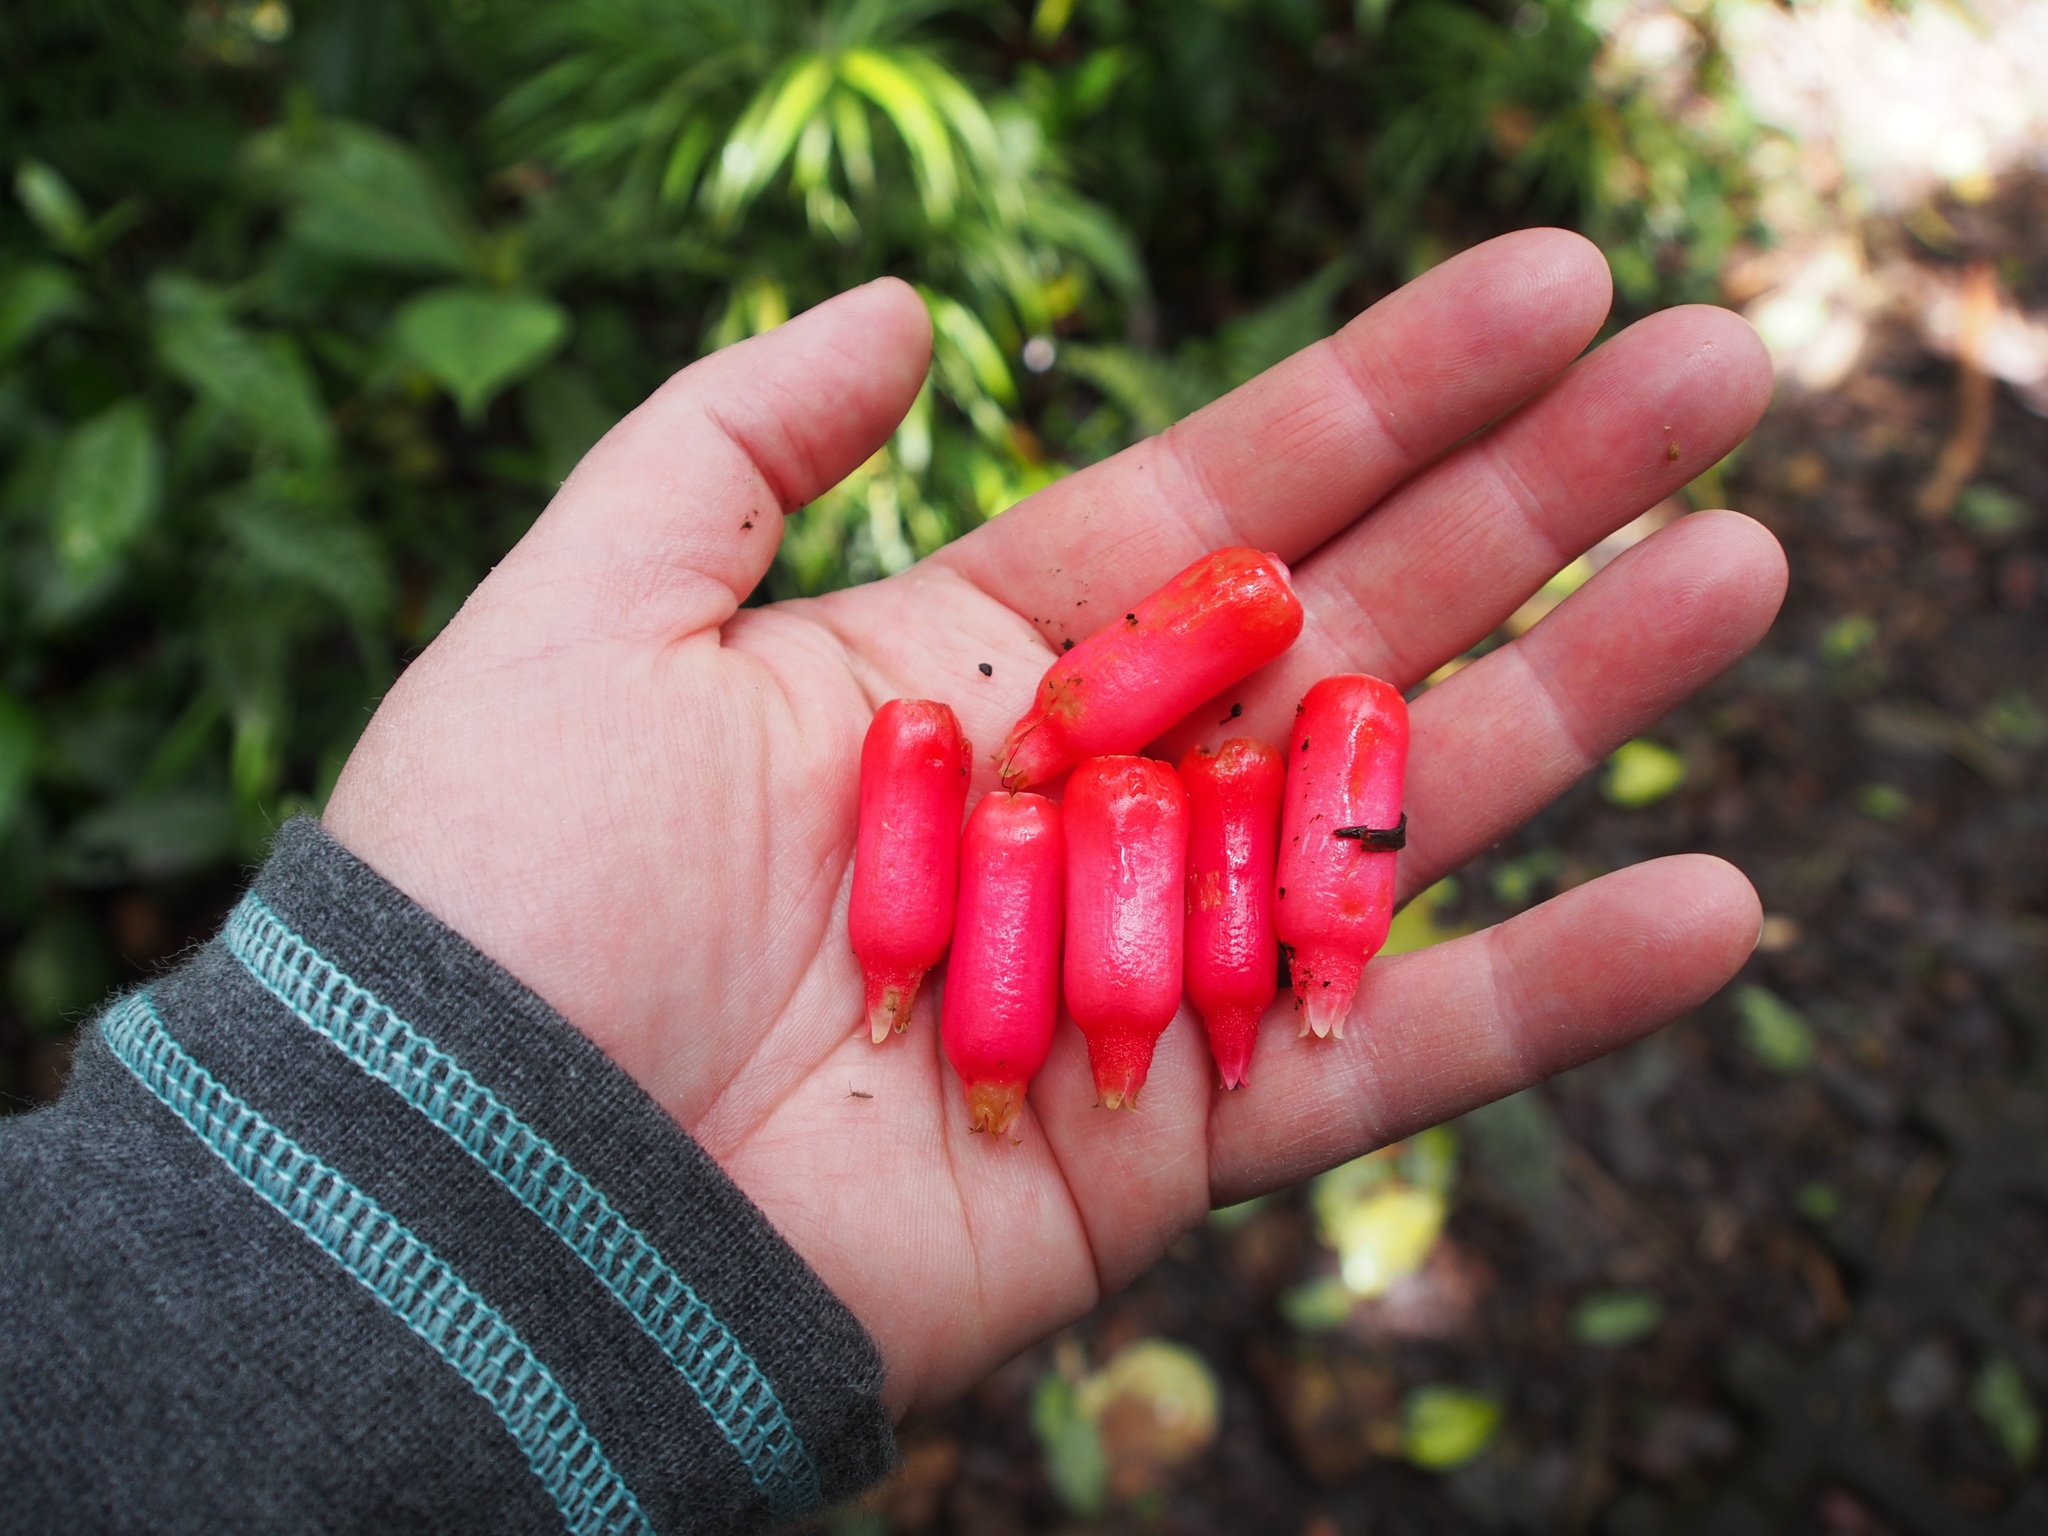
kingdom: Plantae
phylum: Tracheophyta
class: Magnoliopsida
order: Ericales
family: Ericaceae
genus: Psammisia
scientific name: Psammisia ramiflora
